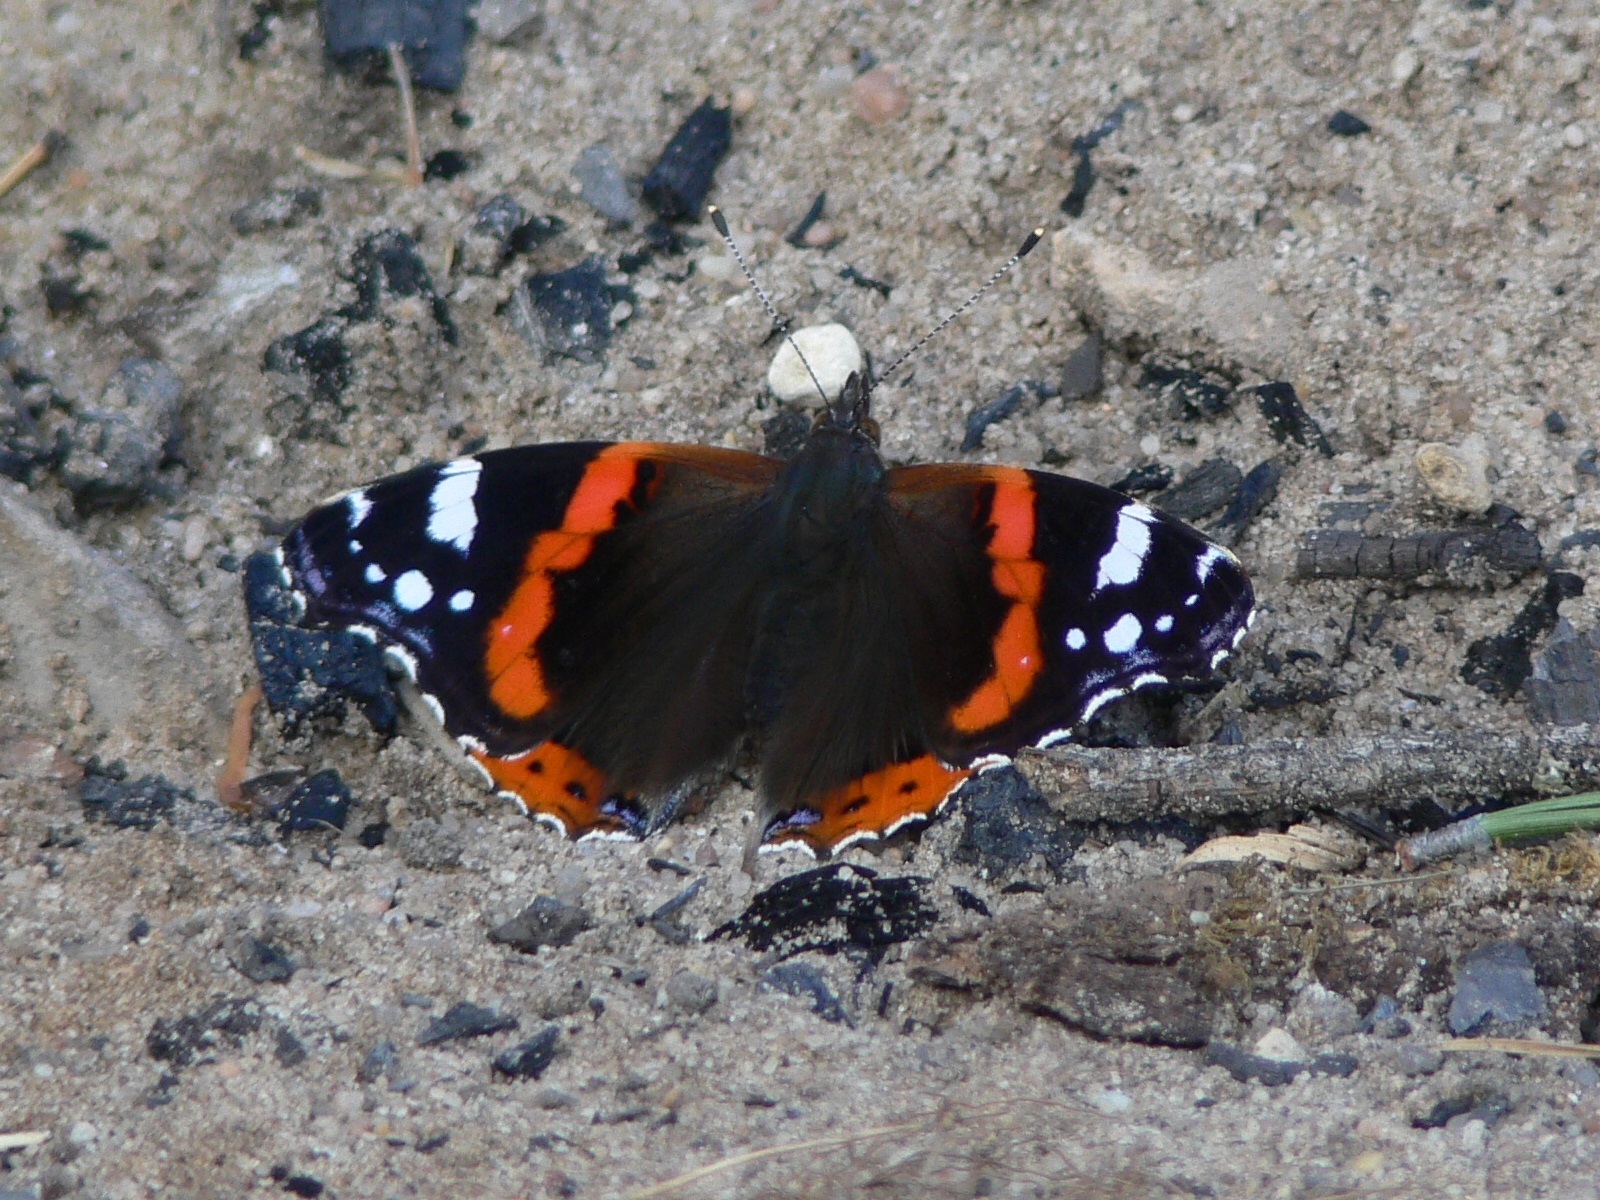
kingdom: Animalia
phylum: Arthropoda
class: Insecta
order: Lepidoptera
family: Nymphalidae
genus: Vanessa
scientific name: Vanessa atalanta
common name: Red admiral
